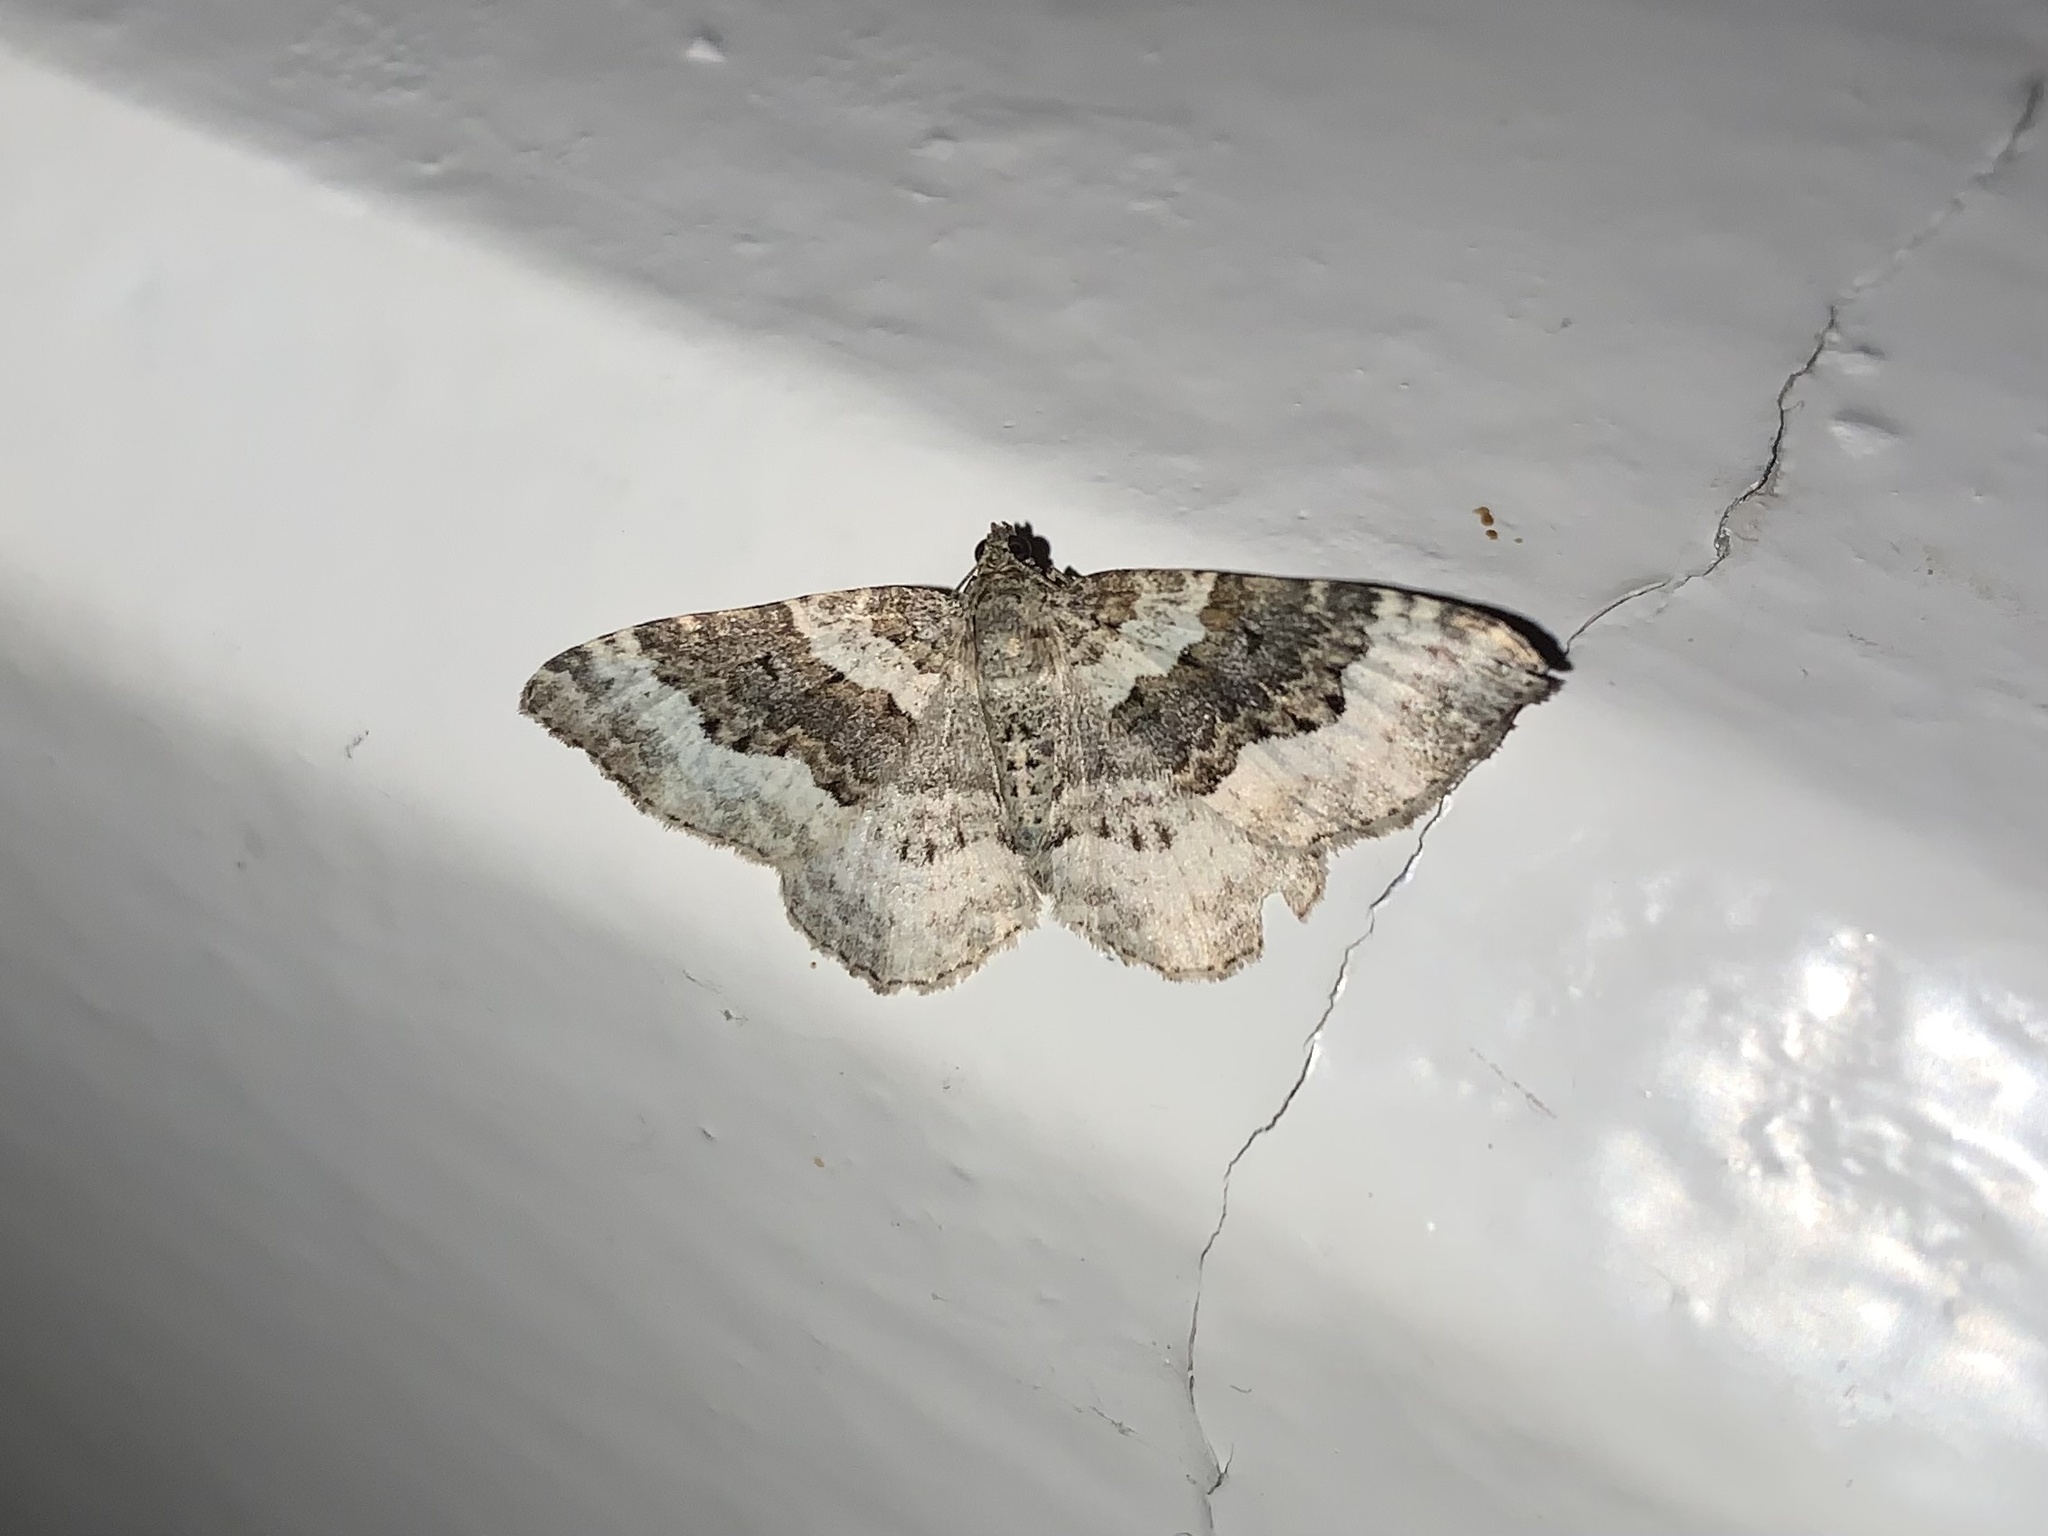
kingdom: Animalia
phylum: Arthropoda
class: Insecta
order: Lepidoptera
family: Geometridae
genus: Epirrhoe
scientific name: Epirrhoe galiata
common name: Galium carpet
